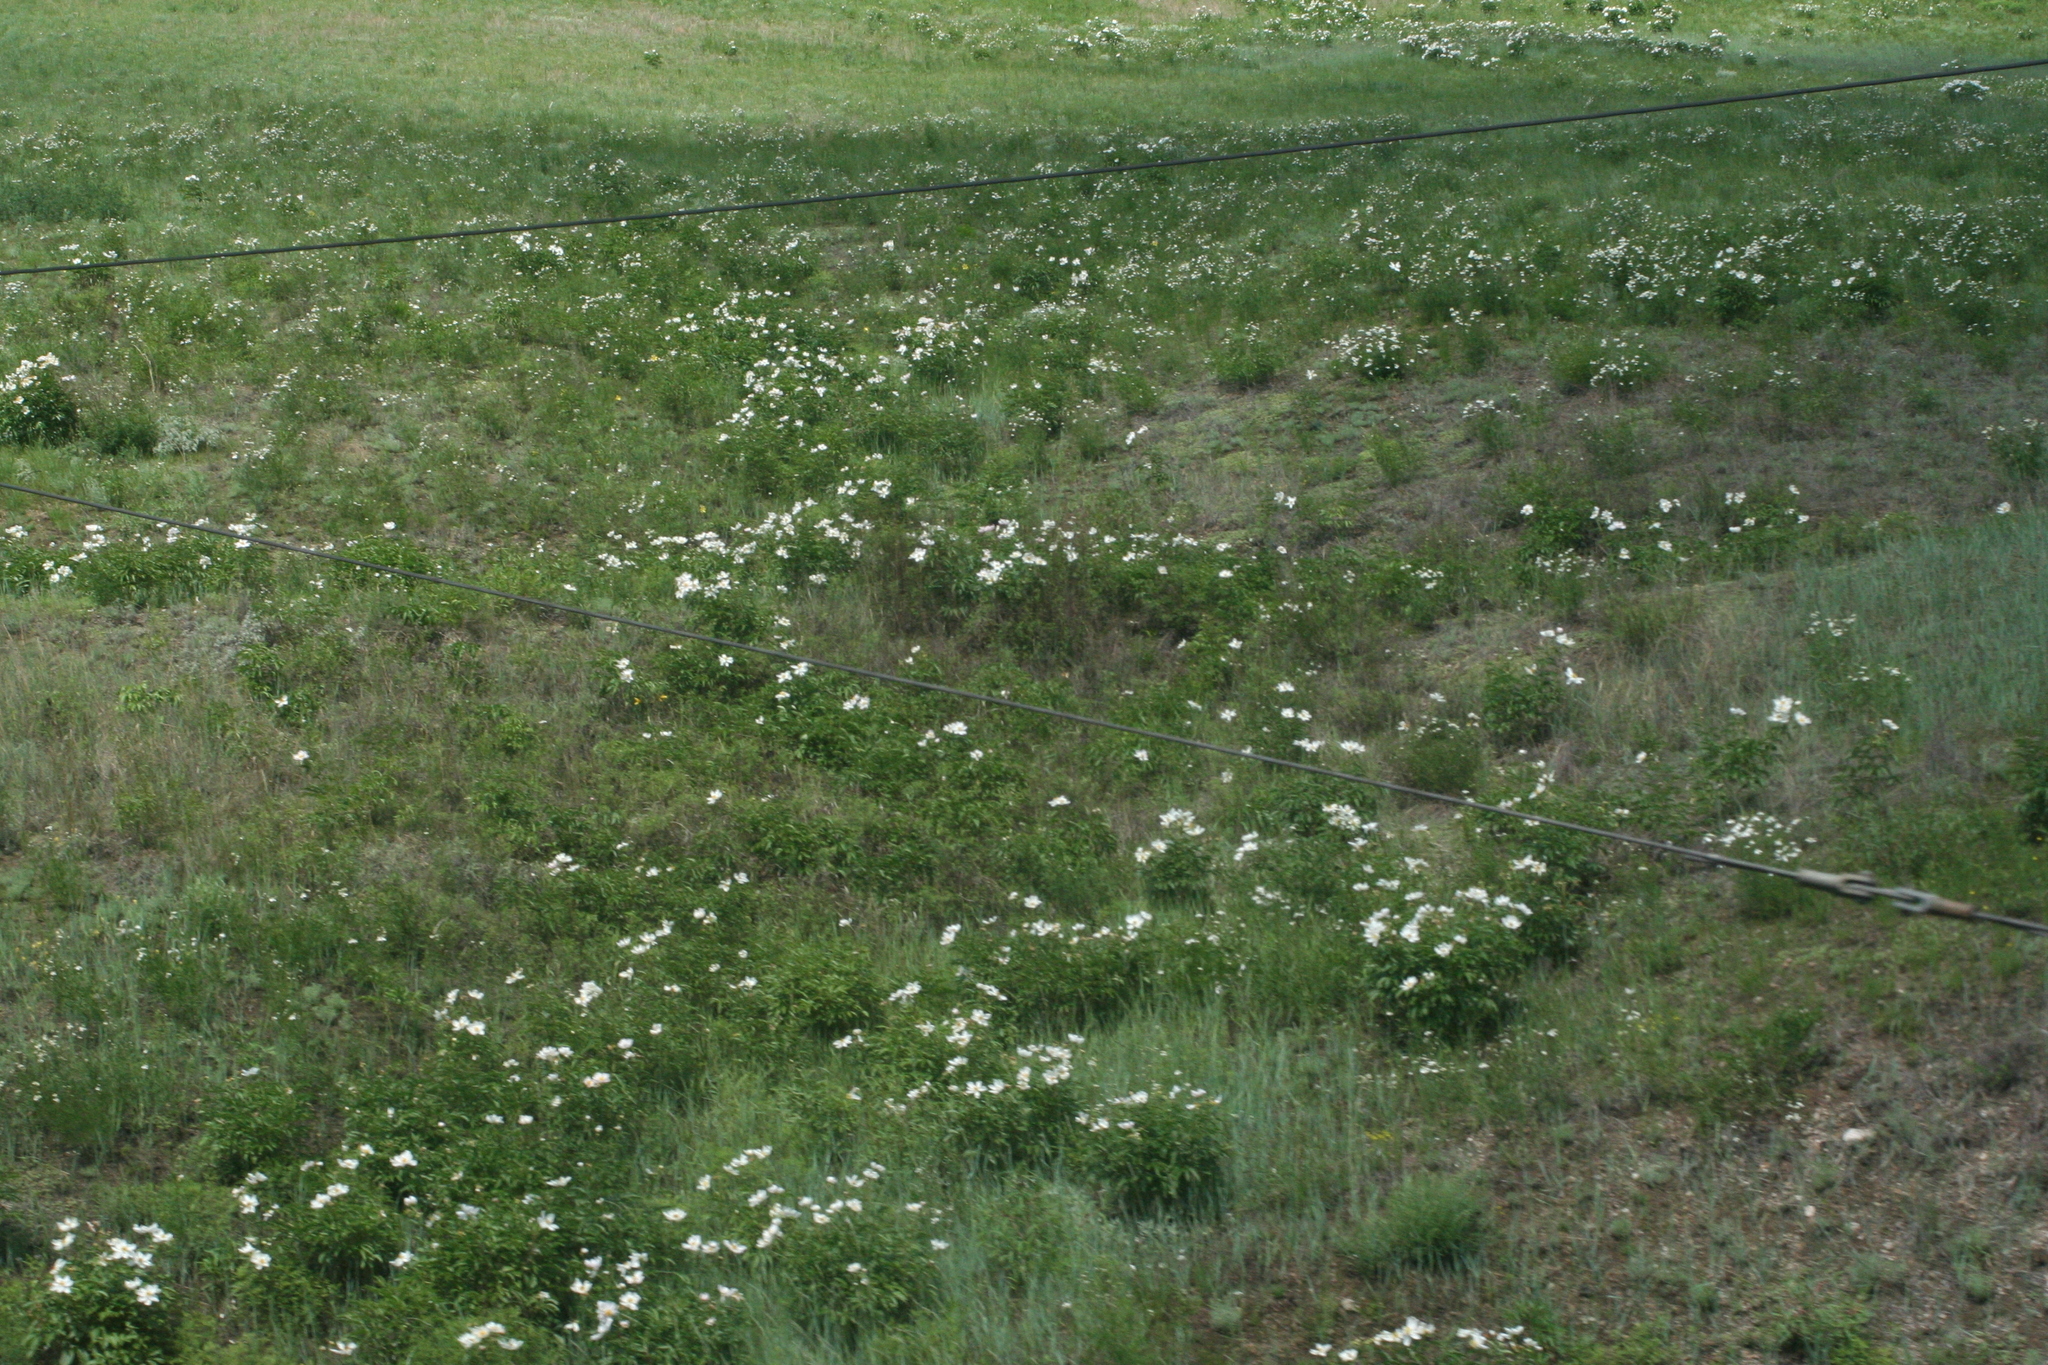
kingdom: Plantae
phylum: Tracheophyta
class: Magnoliopsida
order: Saxifragales
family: Paeoniaceae
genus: Paeonia
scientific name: Paeonia lactiflora
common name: Chinese peony
